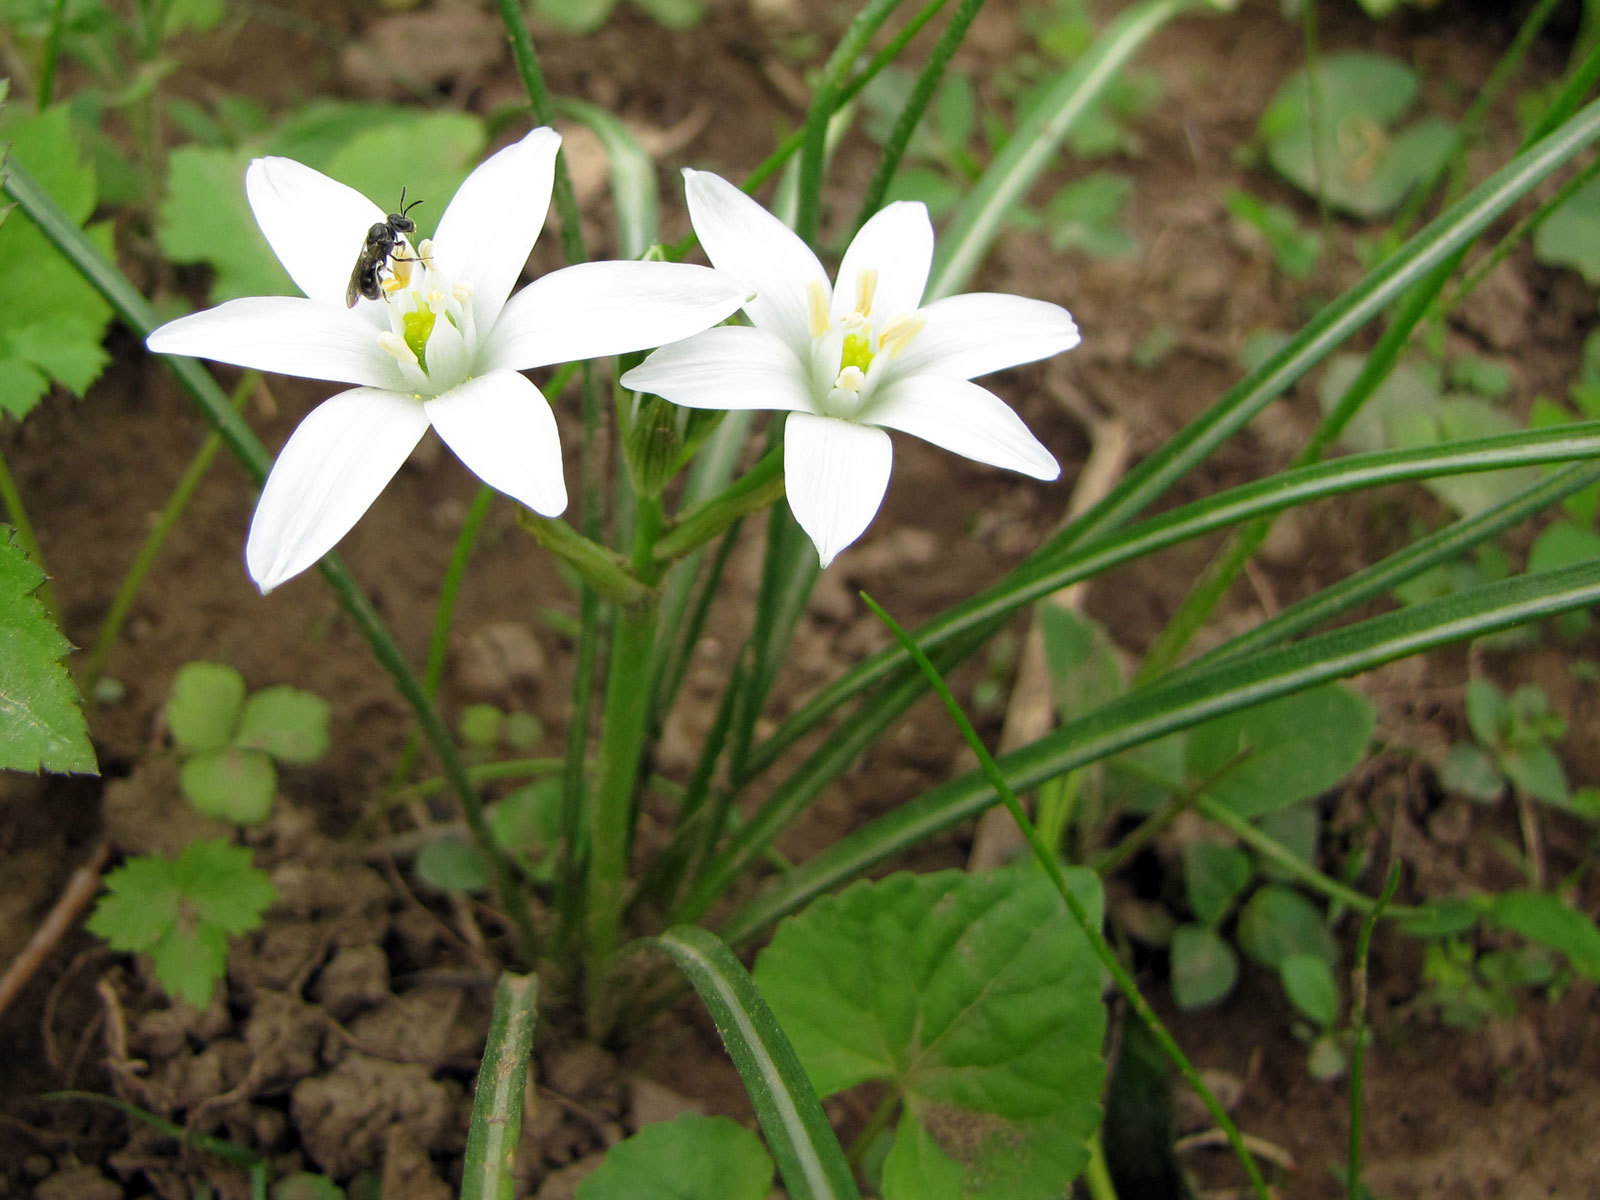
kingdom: Plantae
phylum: Tracheophyta
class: Liliopsida
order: Asparagales
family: Asparagaceae
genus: Ornithogalum
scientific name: Ornithogalum umbellatum
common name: Garden star-of-bethlehem
